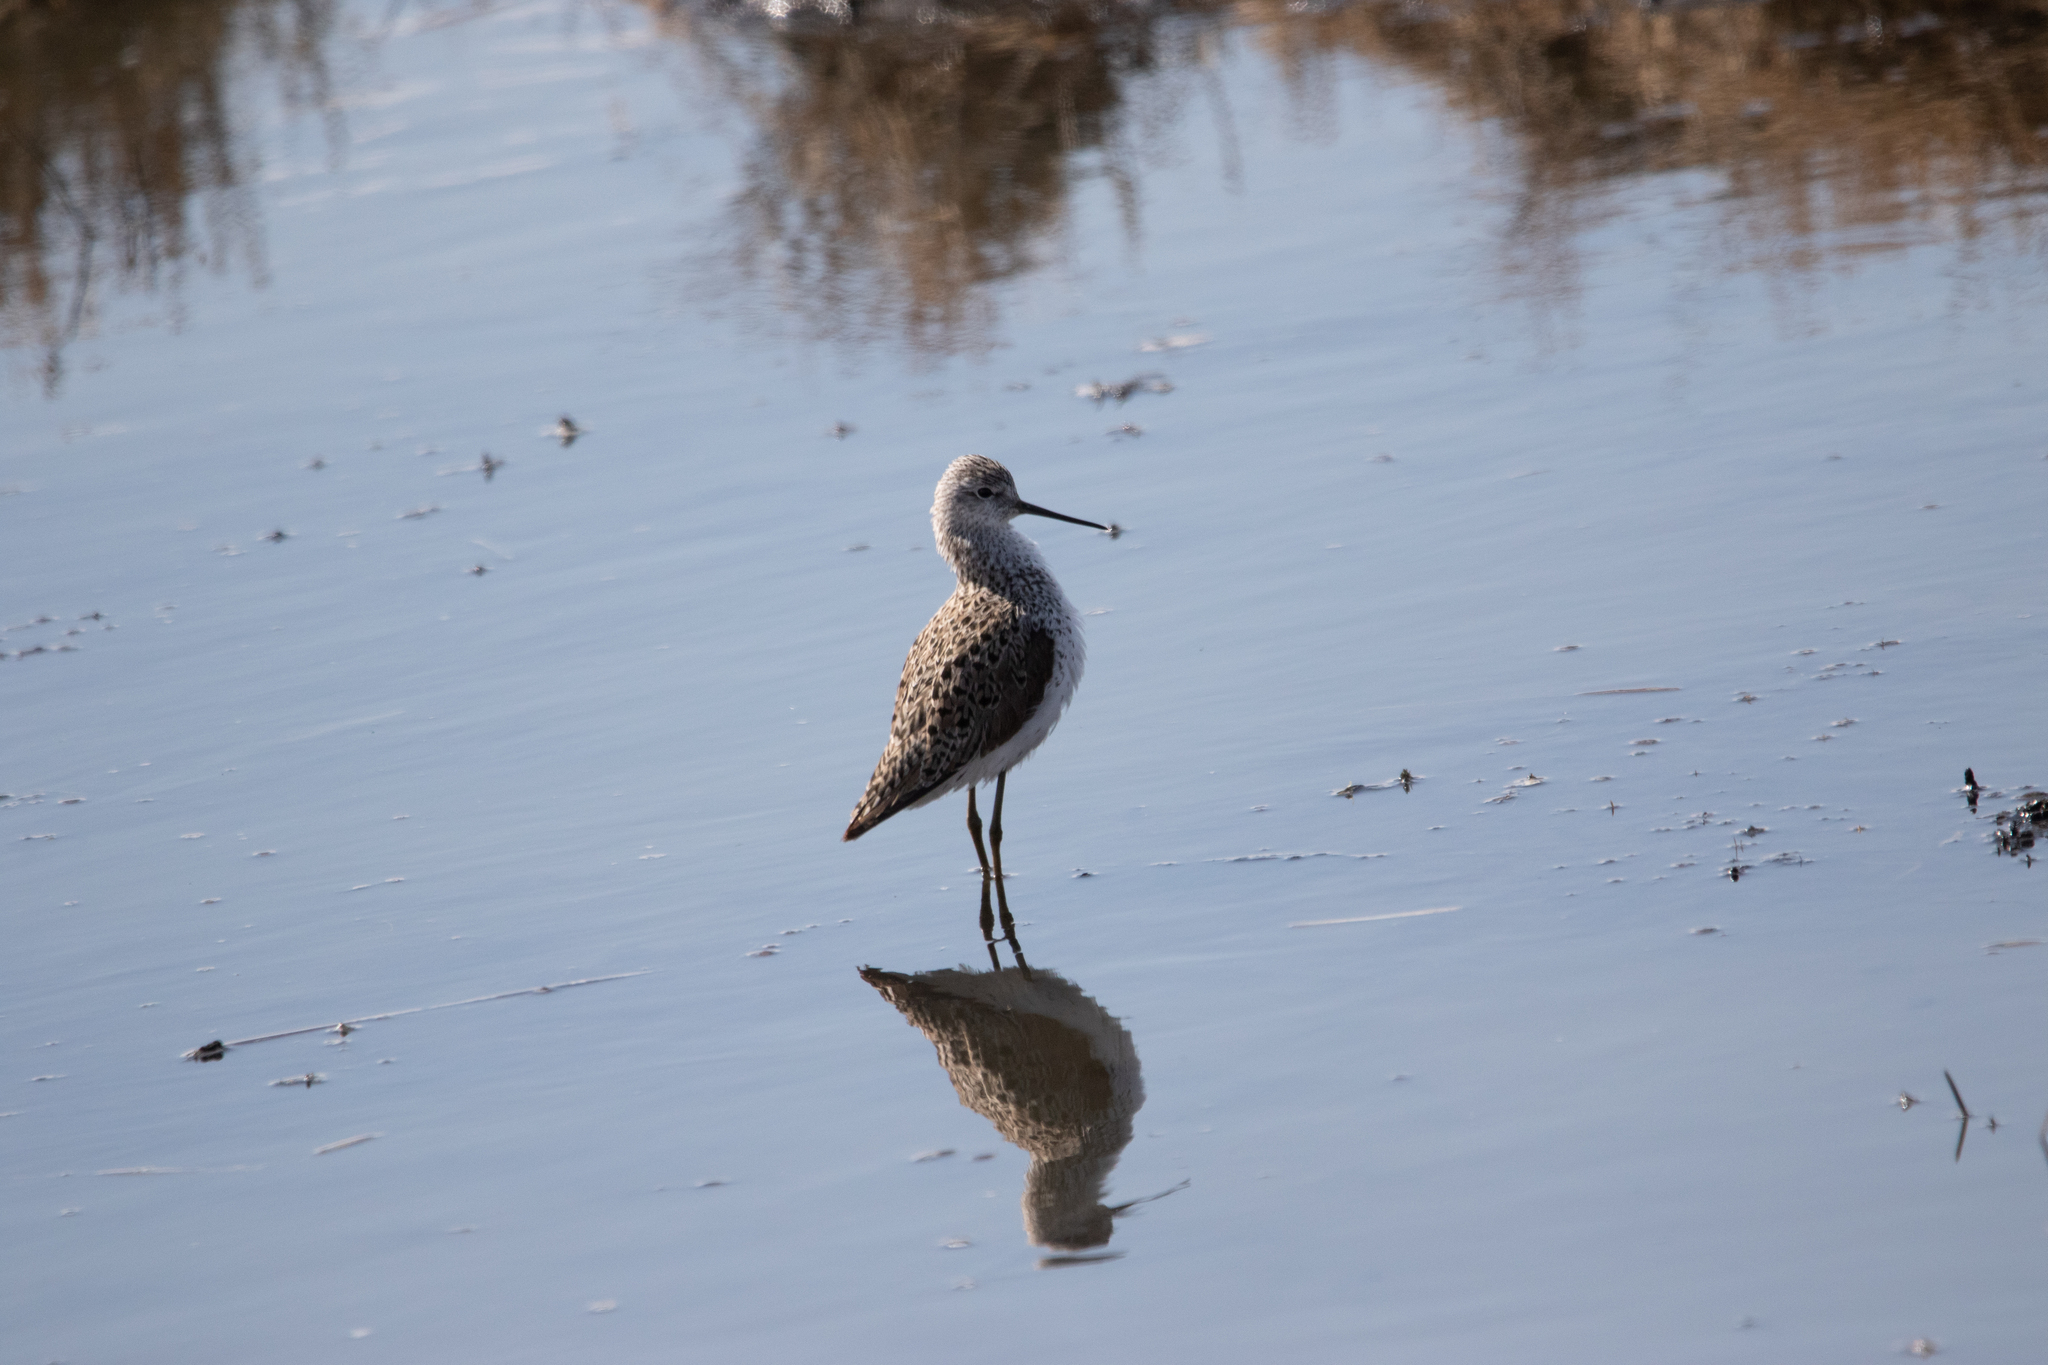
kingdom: Animalia
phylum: Chordata
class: Aves
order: Charadriiformes
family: Scolopacidae
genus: Tringa
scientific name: Tringa stagnatilis
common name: Marsh sandpiper
